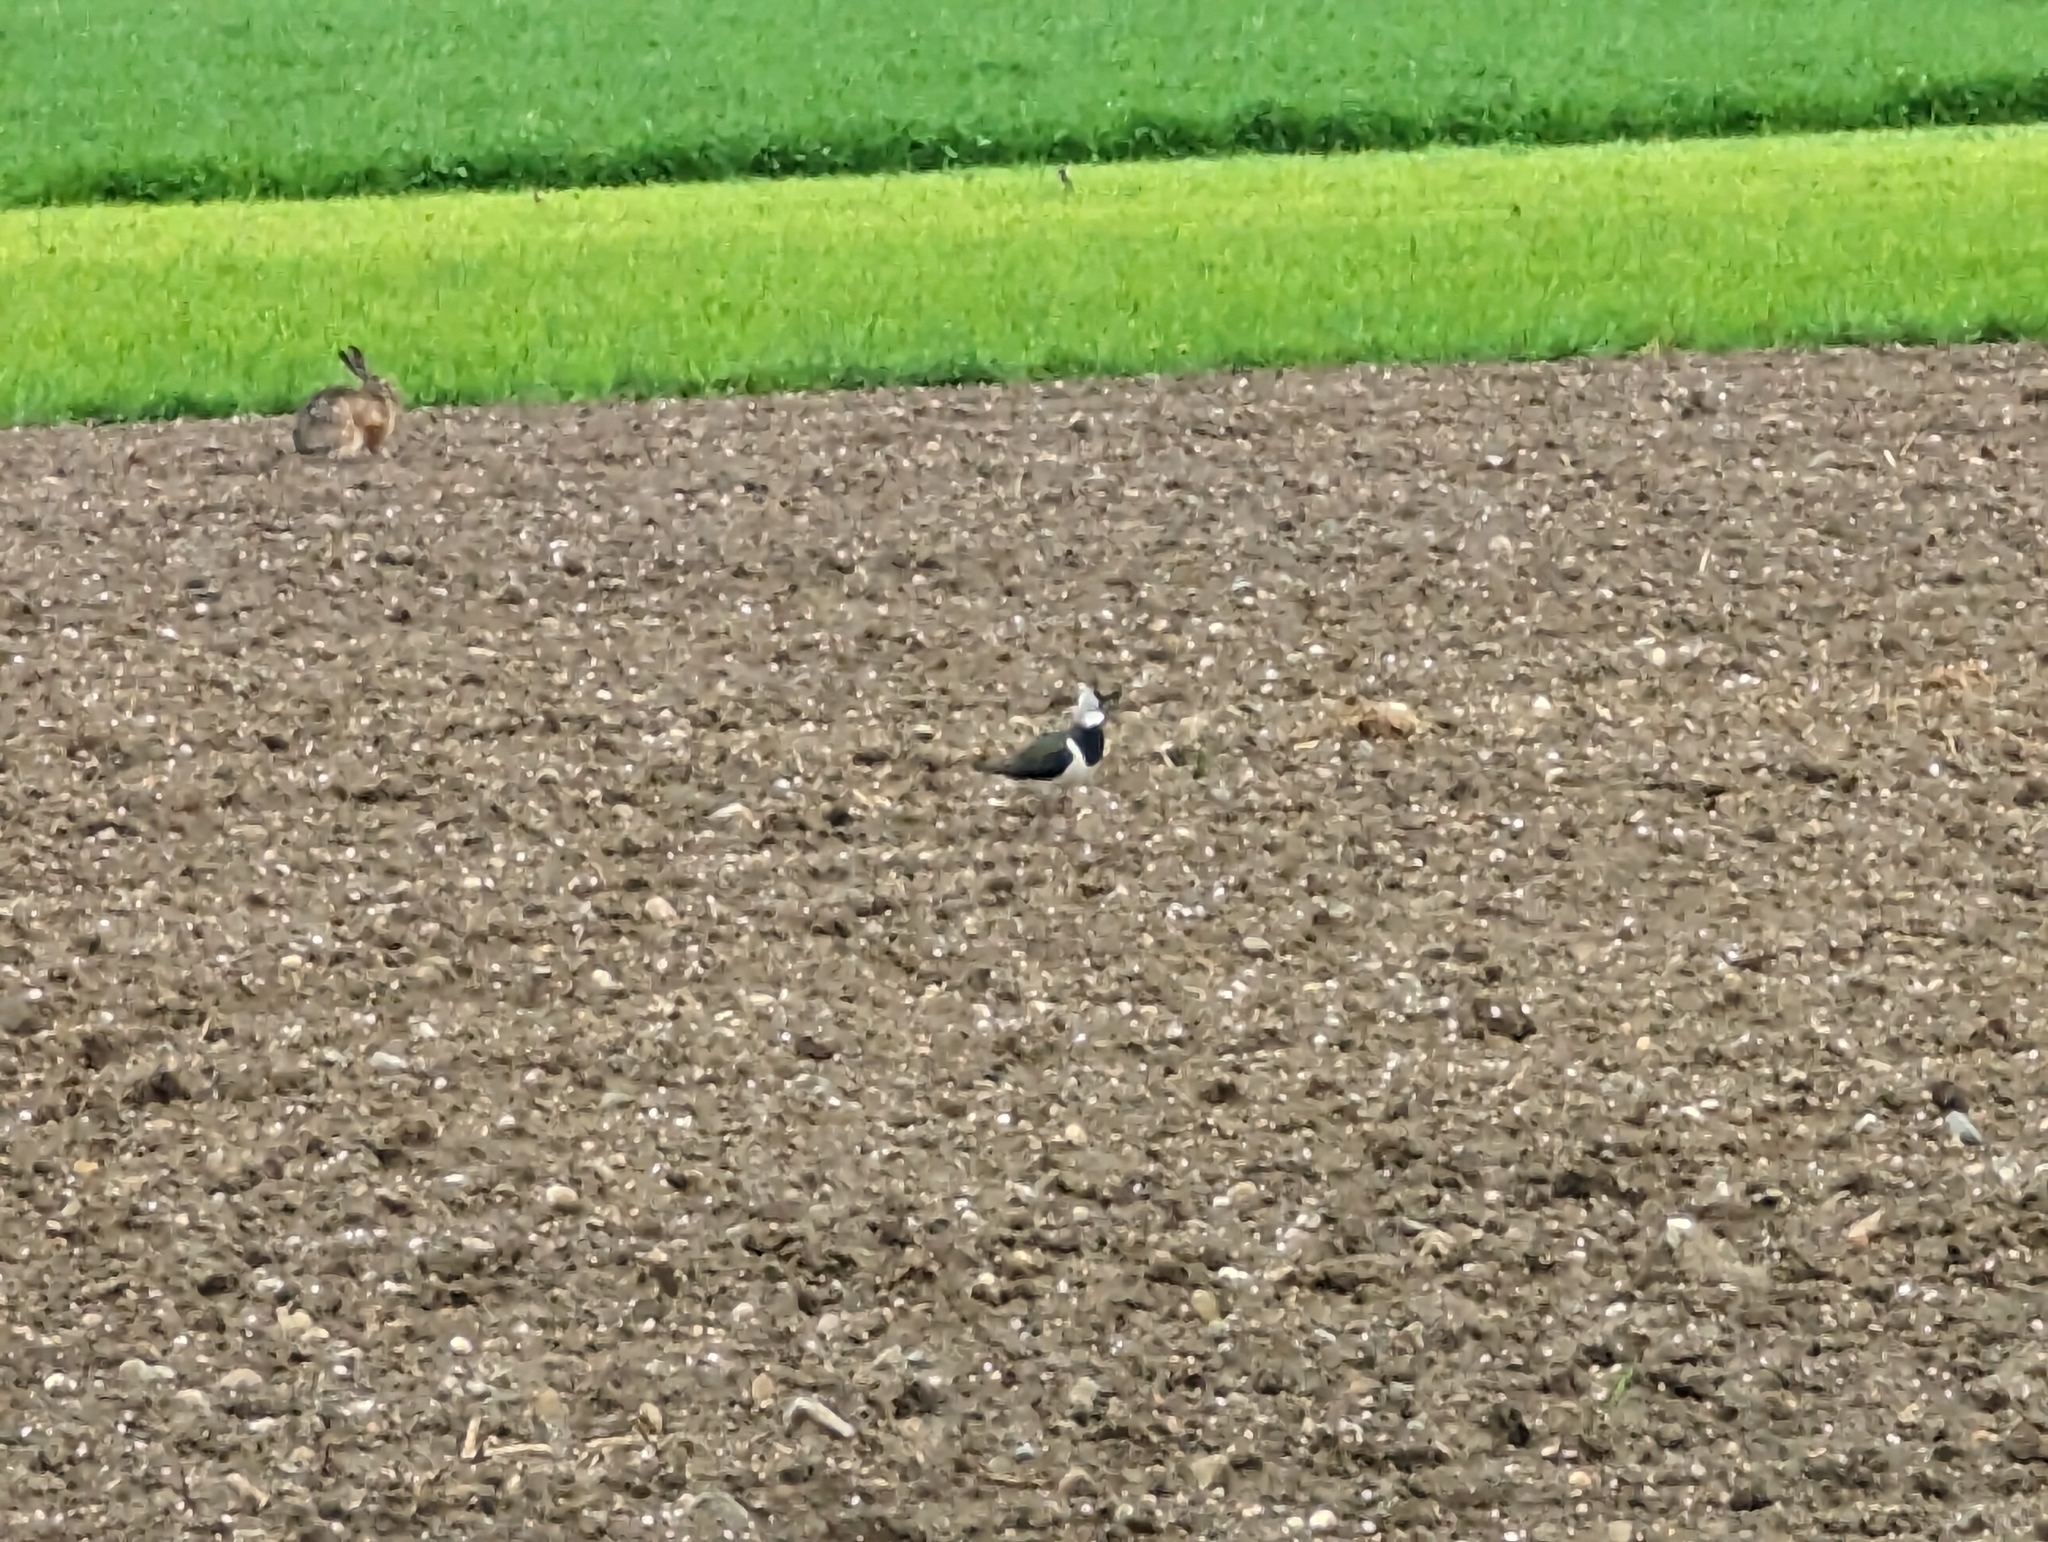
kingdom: Animalia
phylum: Chordata
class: Aves
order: Charadriiformes
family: Charadriidae
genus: Vanellus
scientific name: Vanellus vanellus
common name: Northern lapwing
